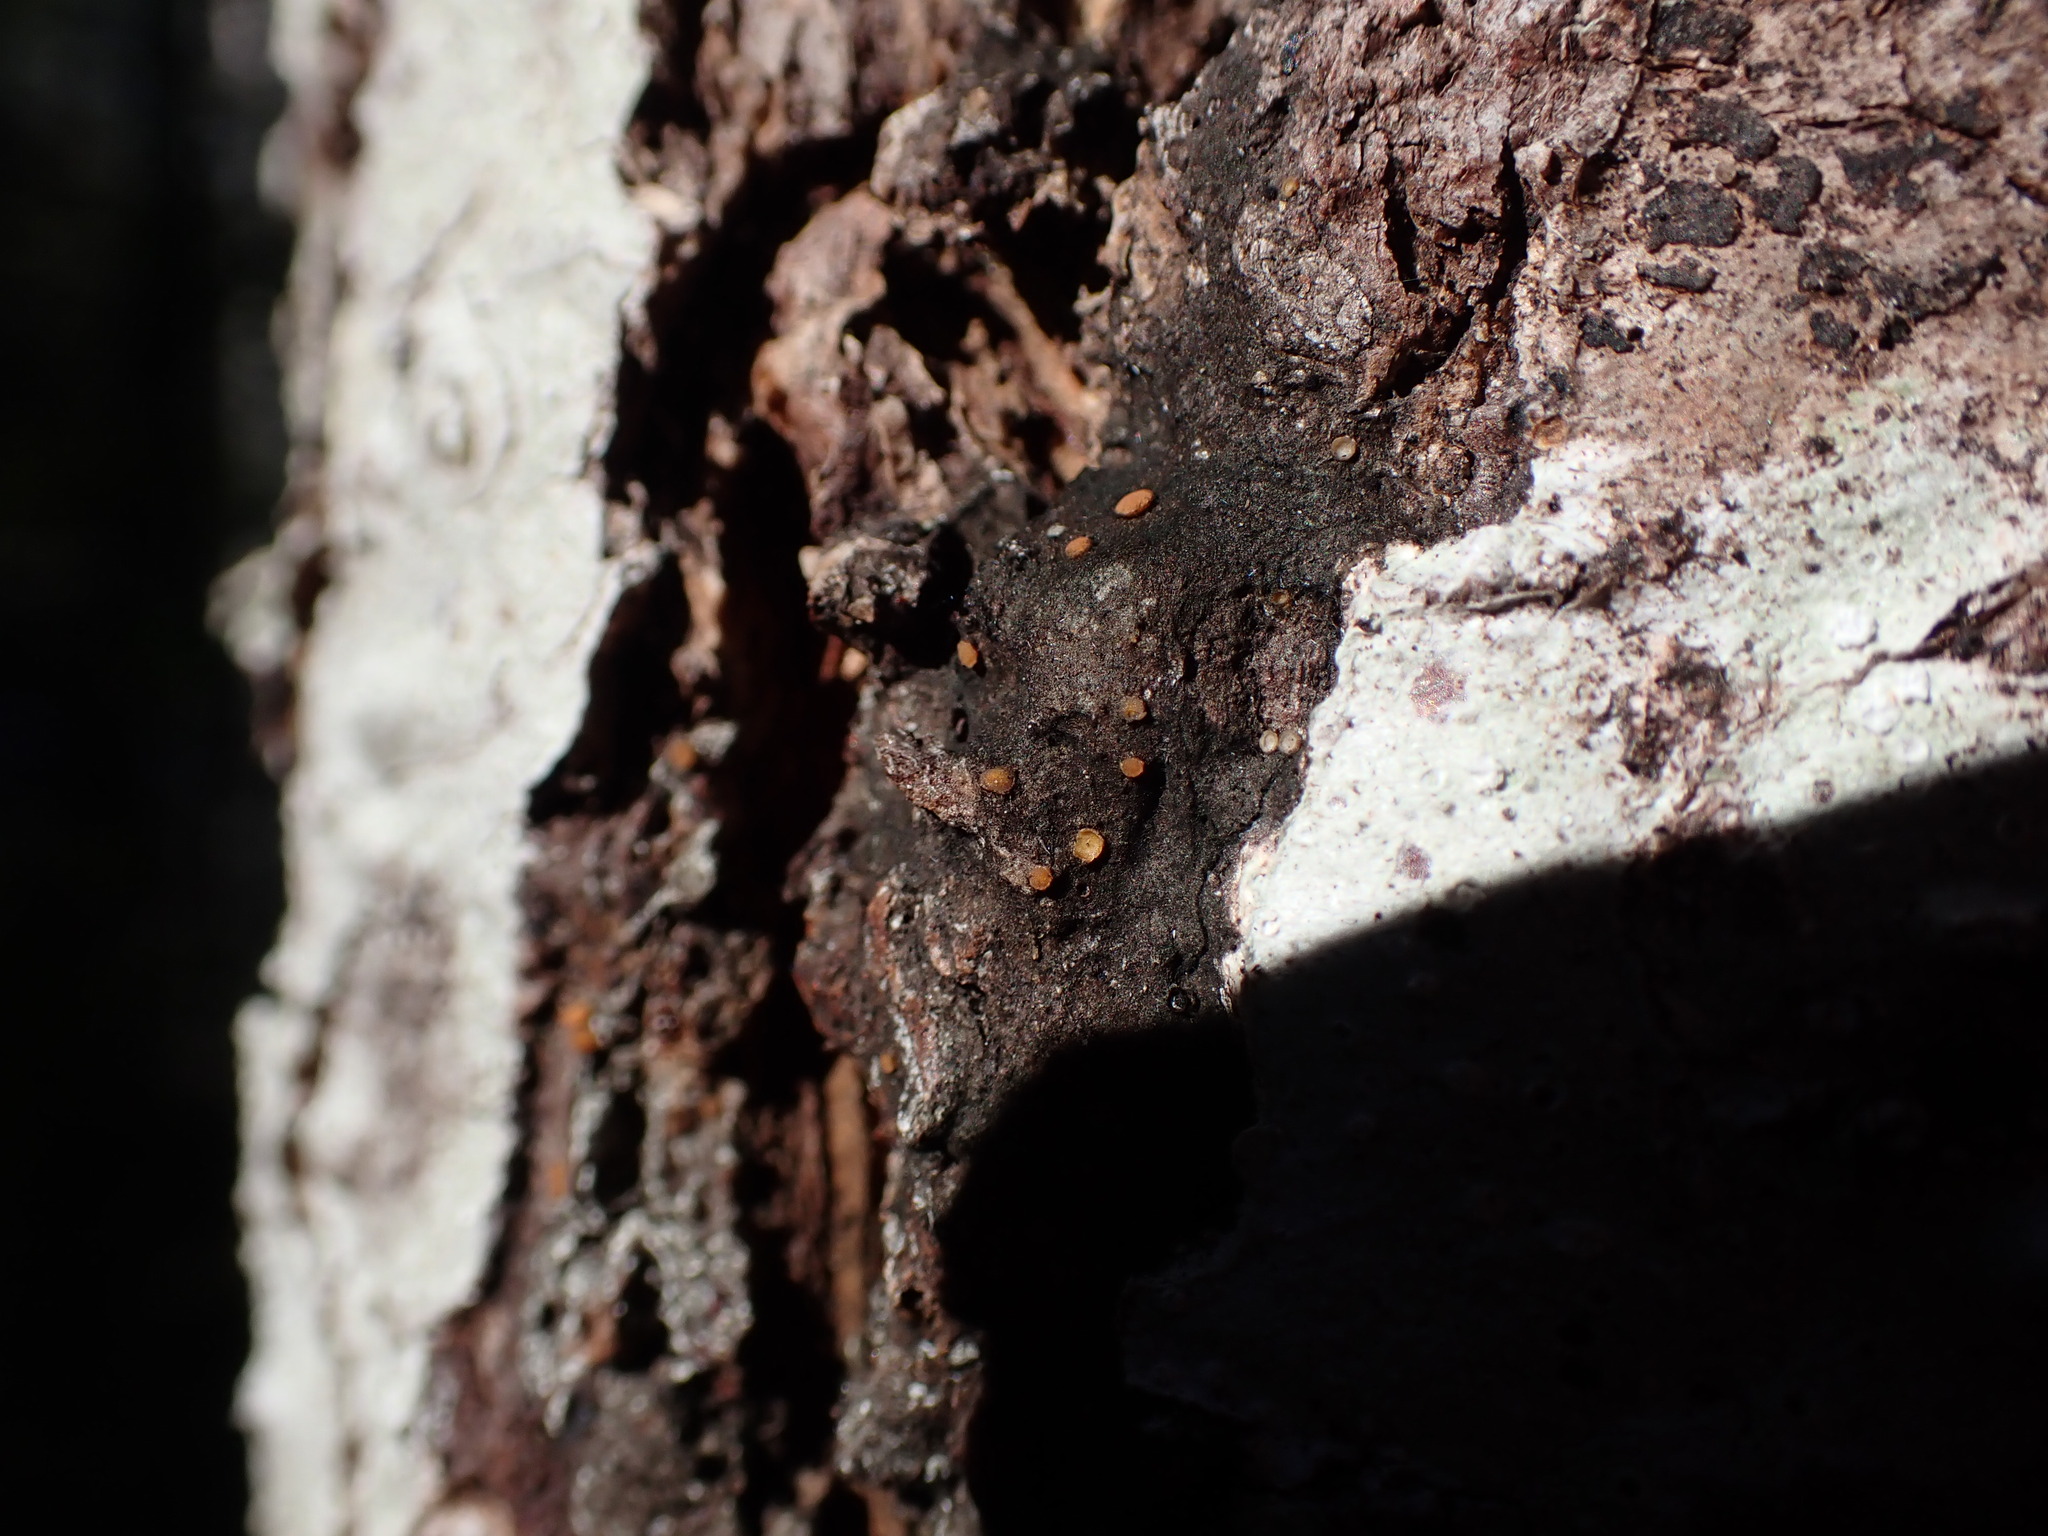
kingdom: Fungi
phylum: Ascomycota
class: Sareomycetes
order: Sareales
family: Sareaceae
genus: Sarea
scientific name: Sarea resinae
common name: Sarea lichen
